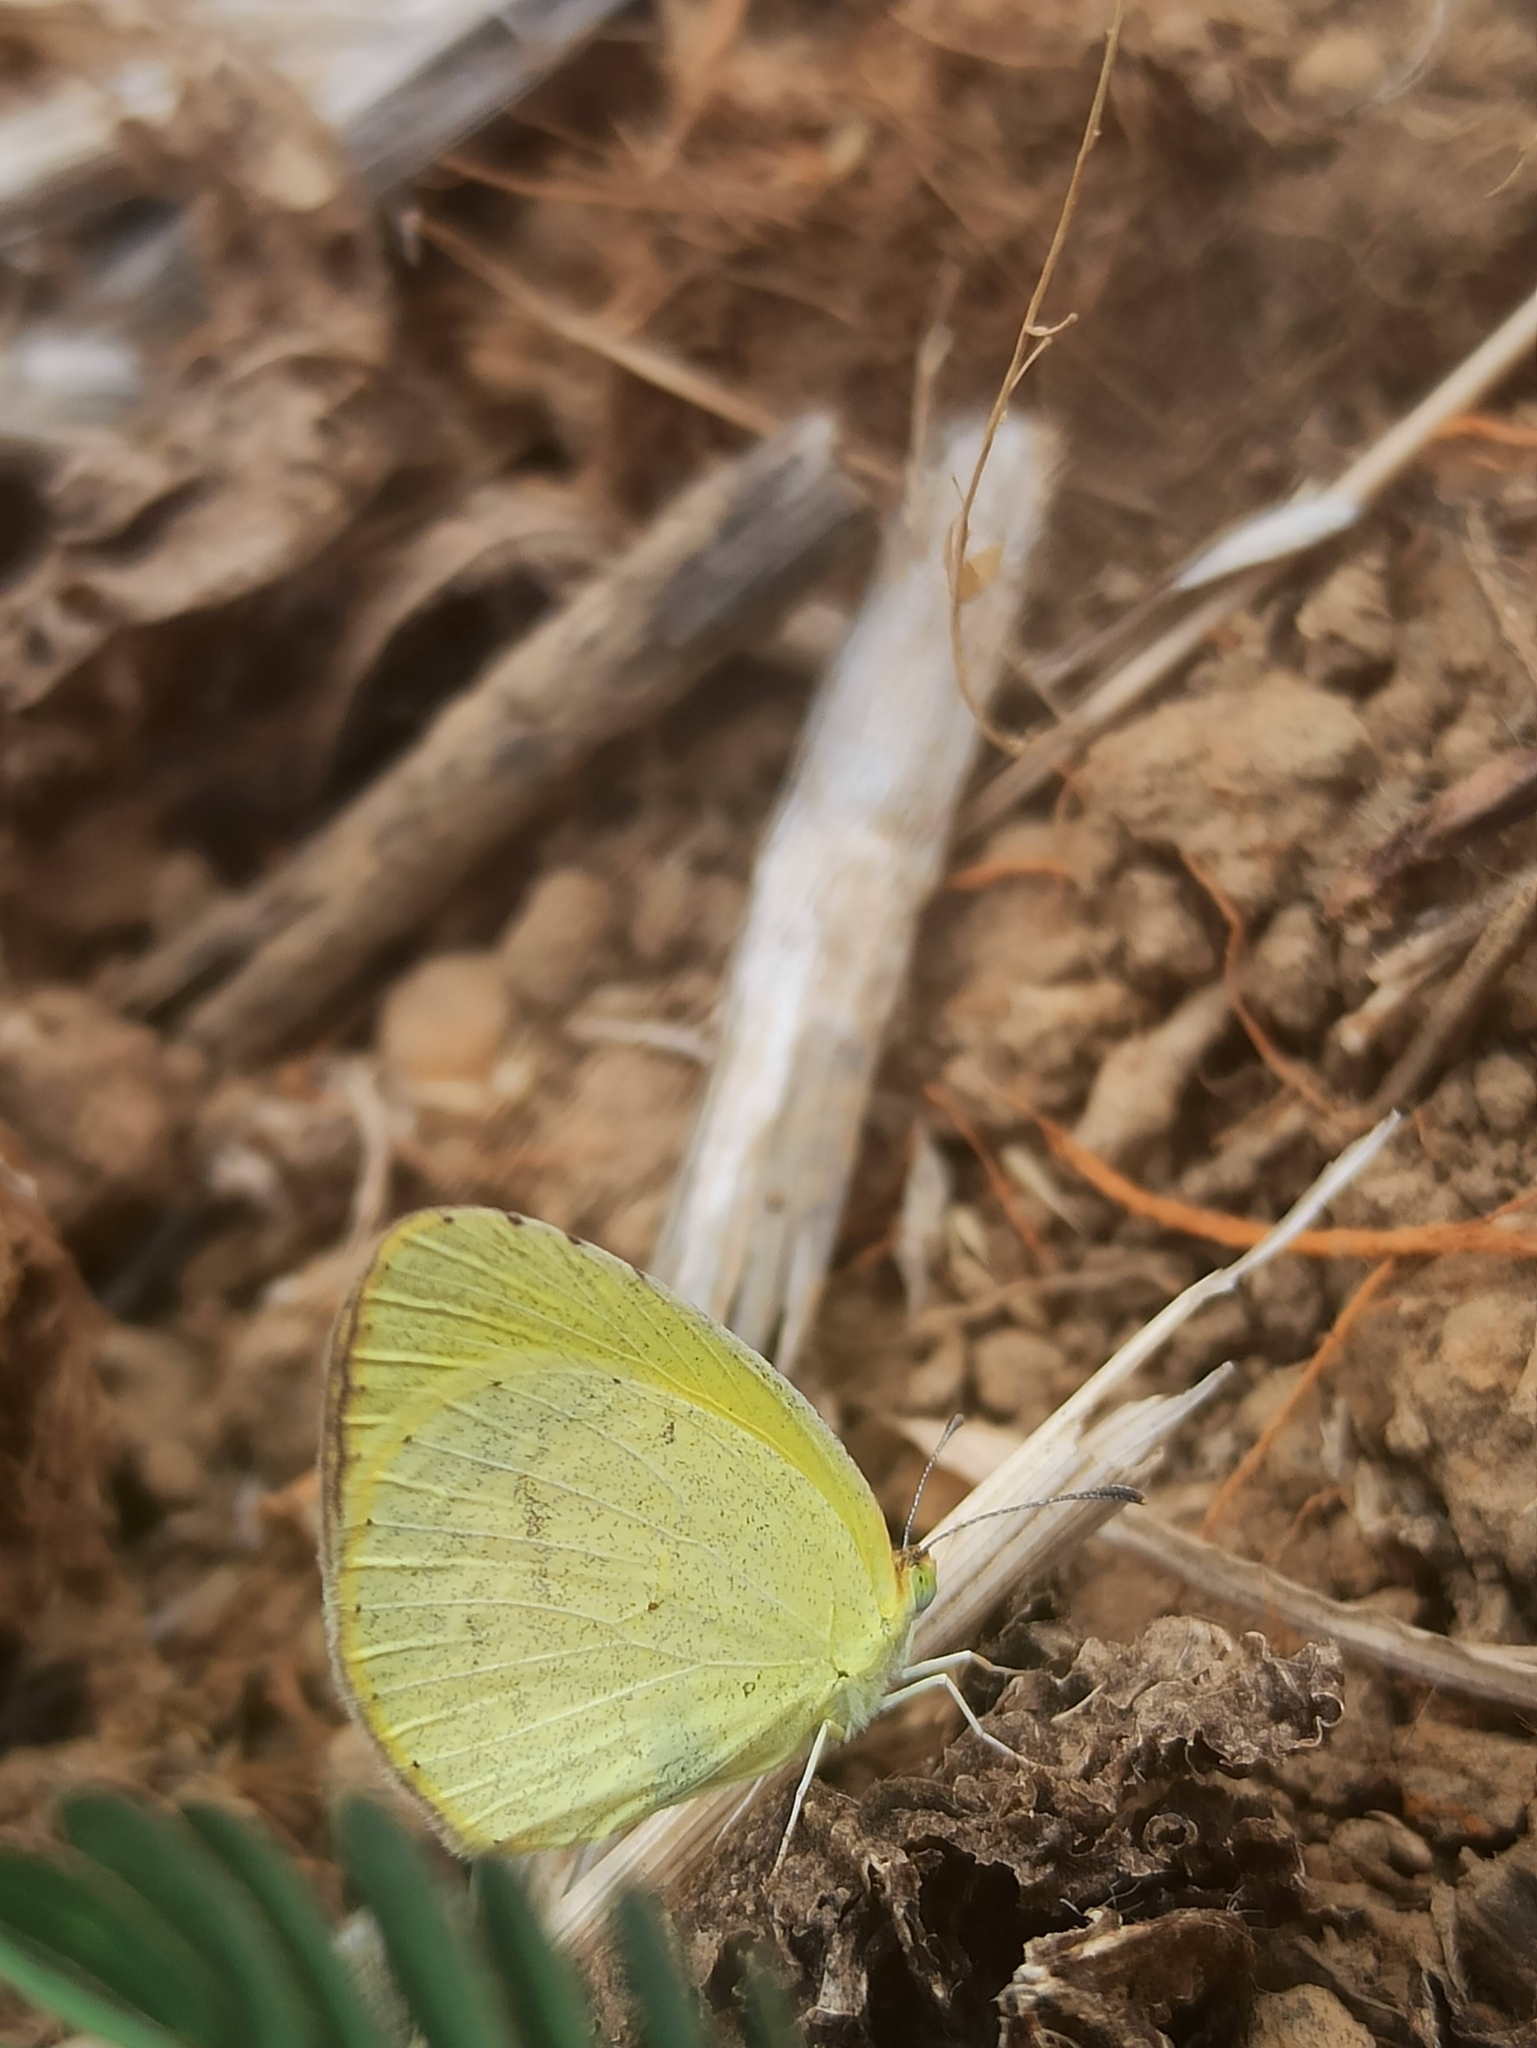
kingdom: Animalia
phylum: Arthropoda
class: Insecta
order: Lepidoptera
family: Pieridae
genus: Eurema
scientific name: Eurema brigitta
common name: Small grass yellow
